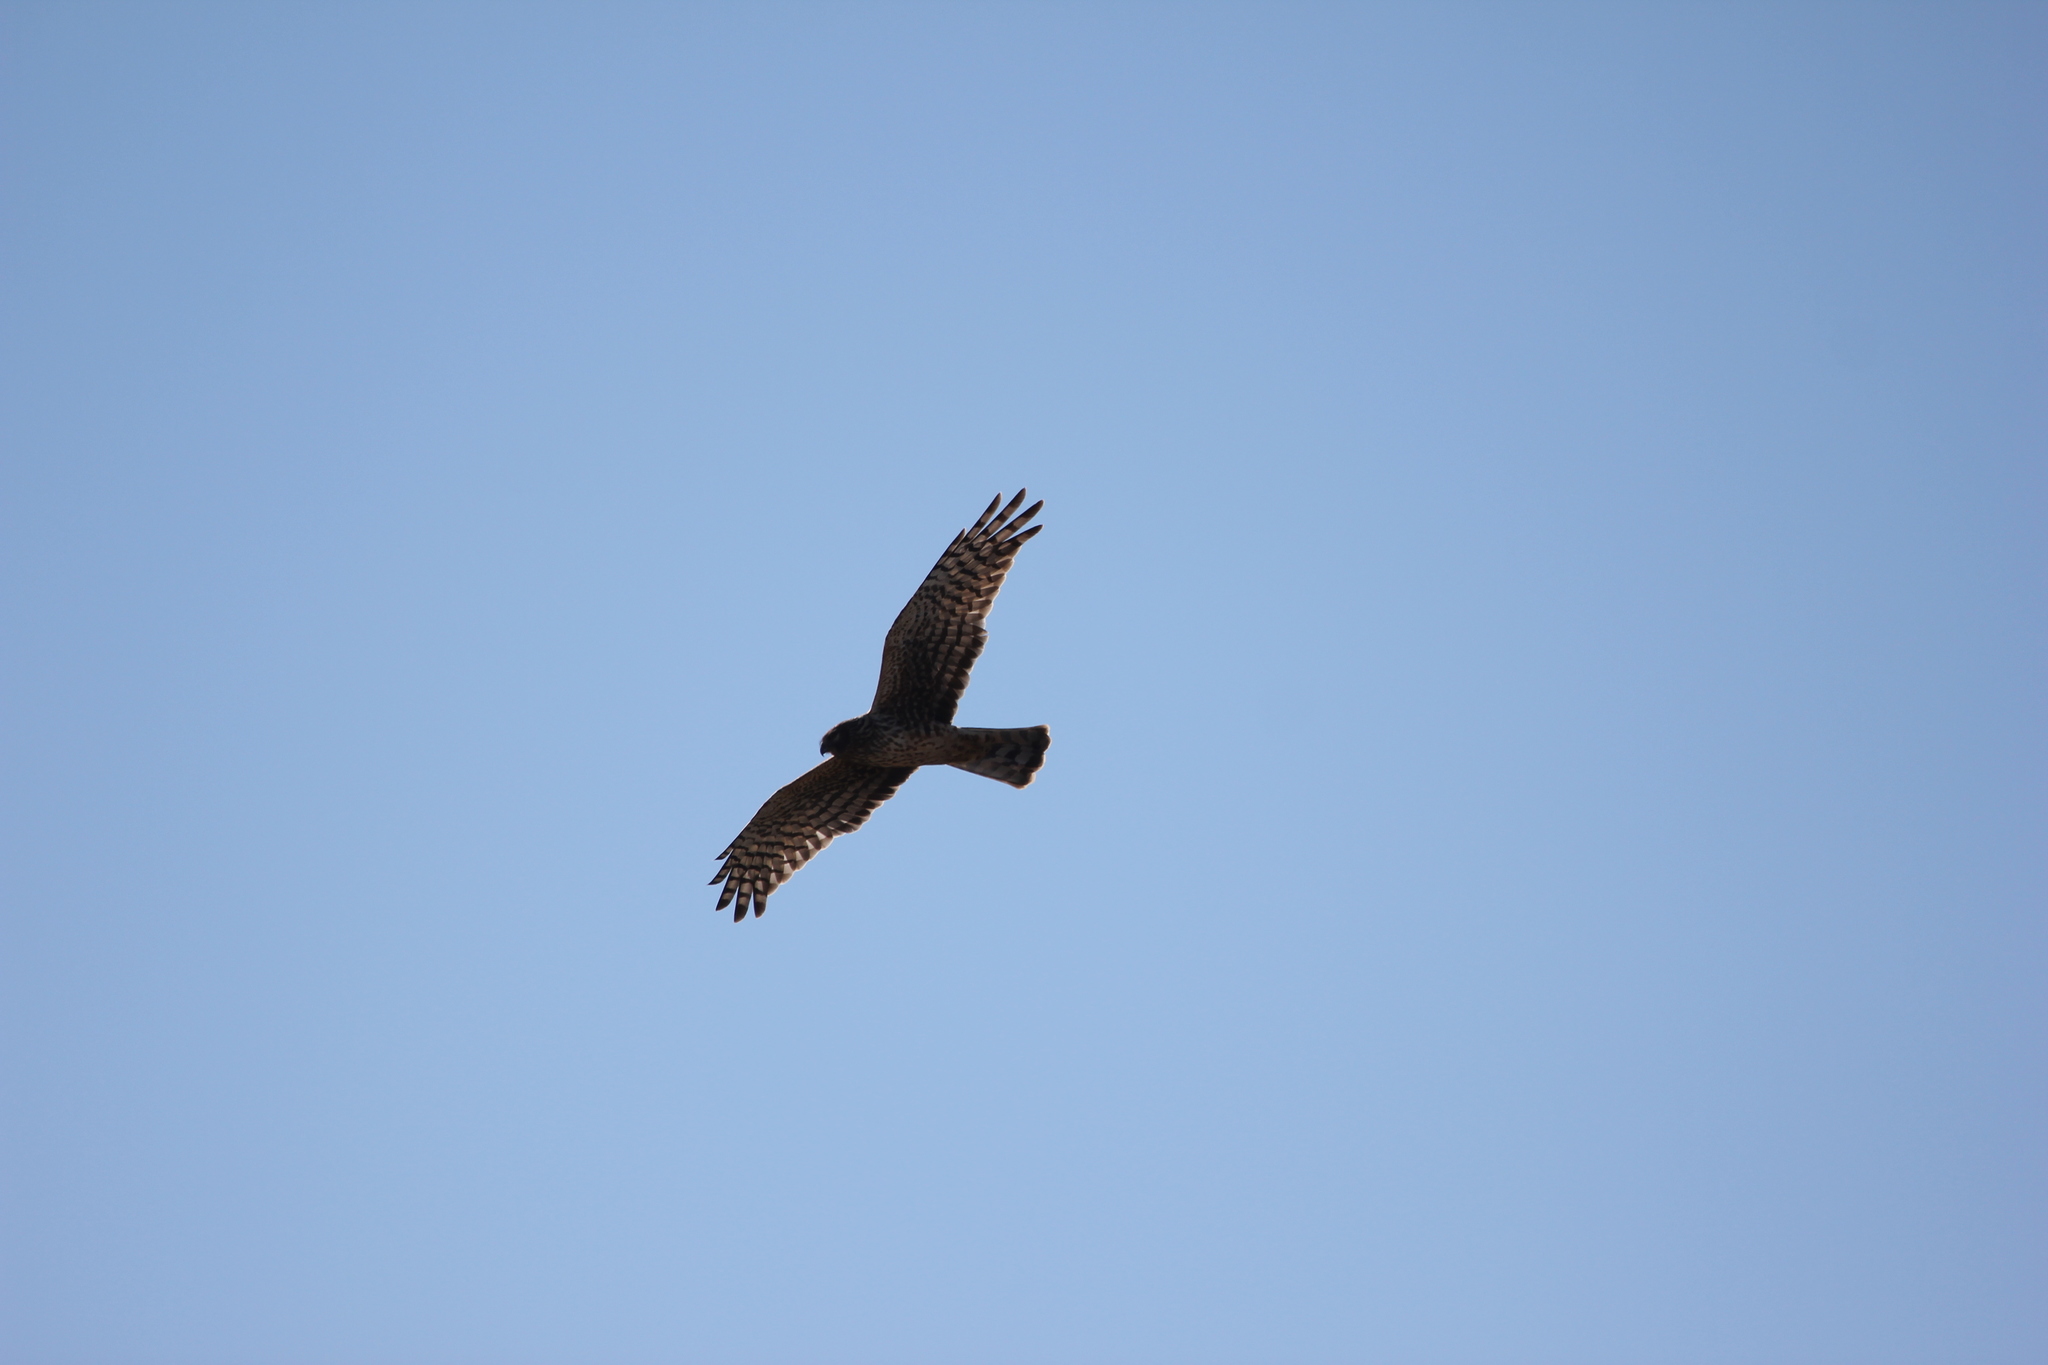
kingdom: Animalia
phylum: Chordata
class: Aves
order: Accipitriformes
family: Accipitridae
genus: Circus
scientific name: Circus cyaneus
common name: Hen harrier
